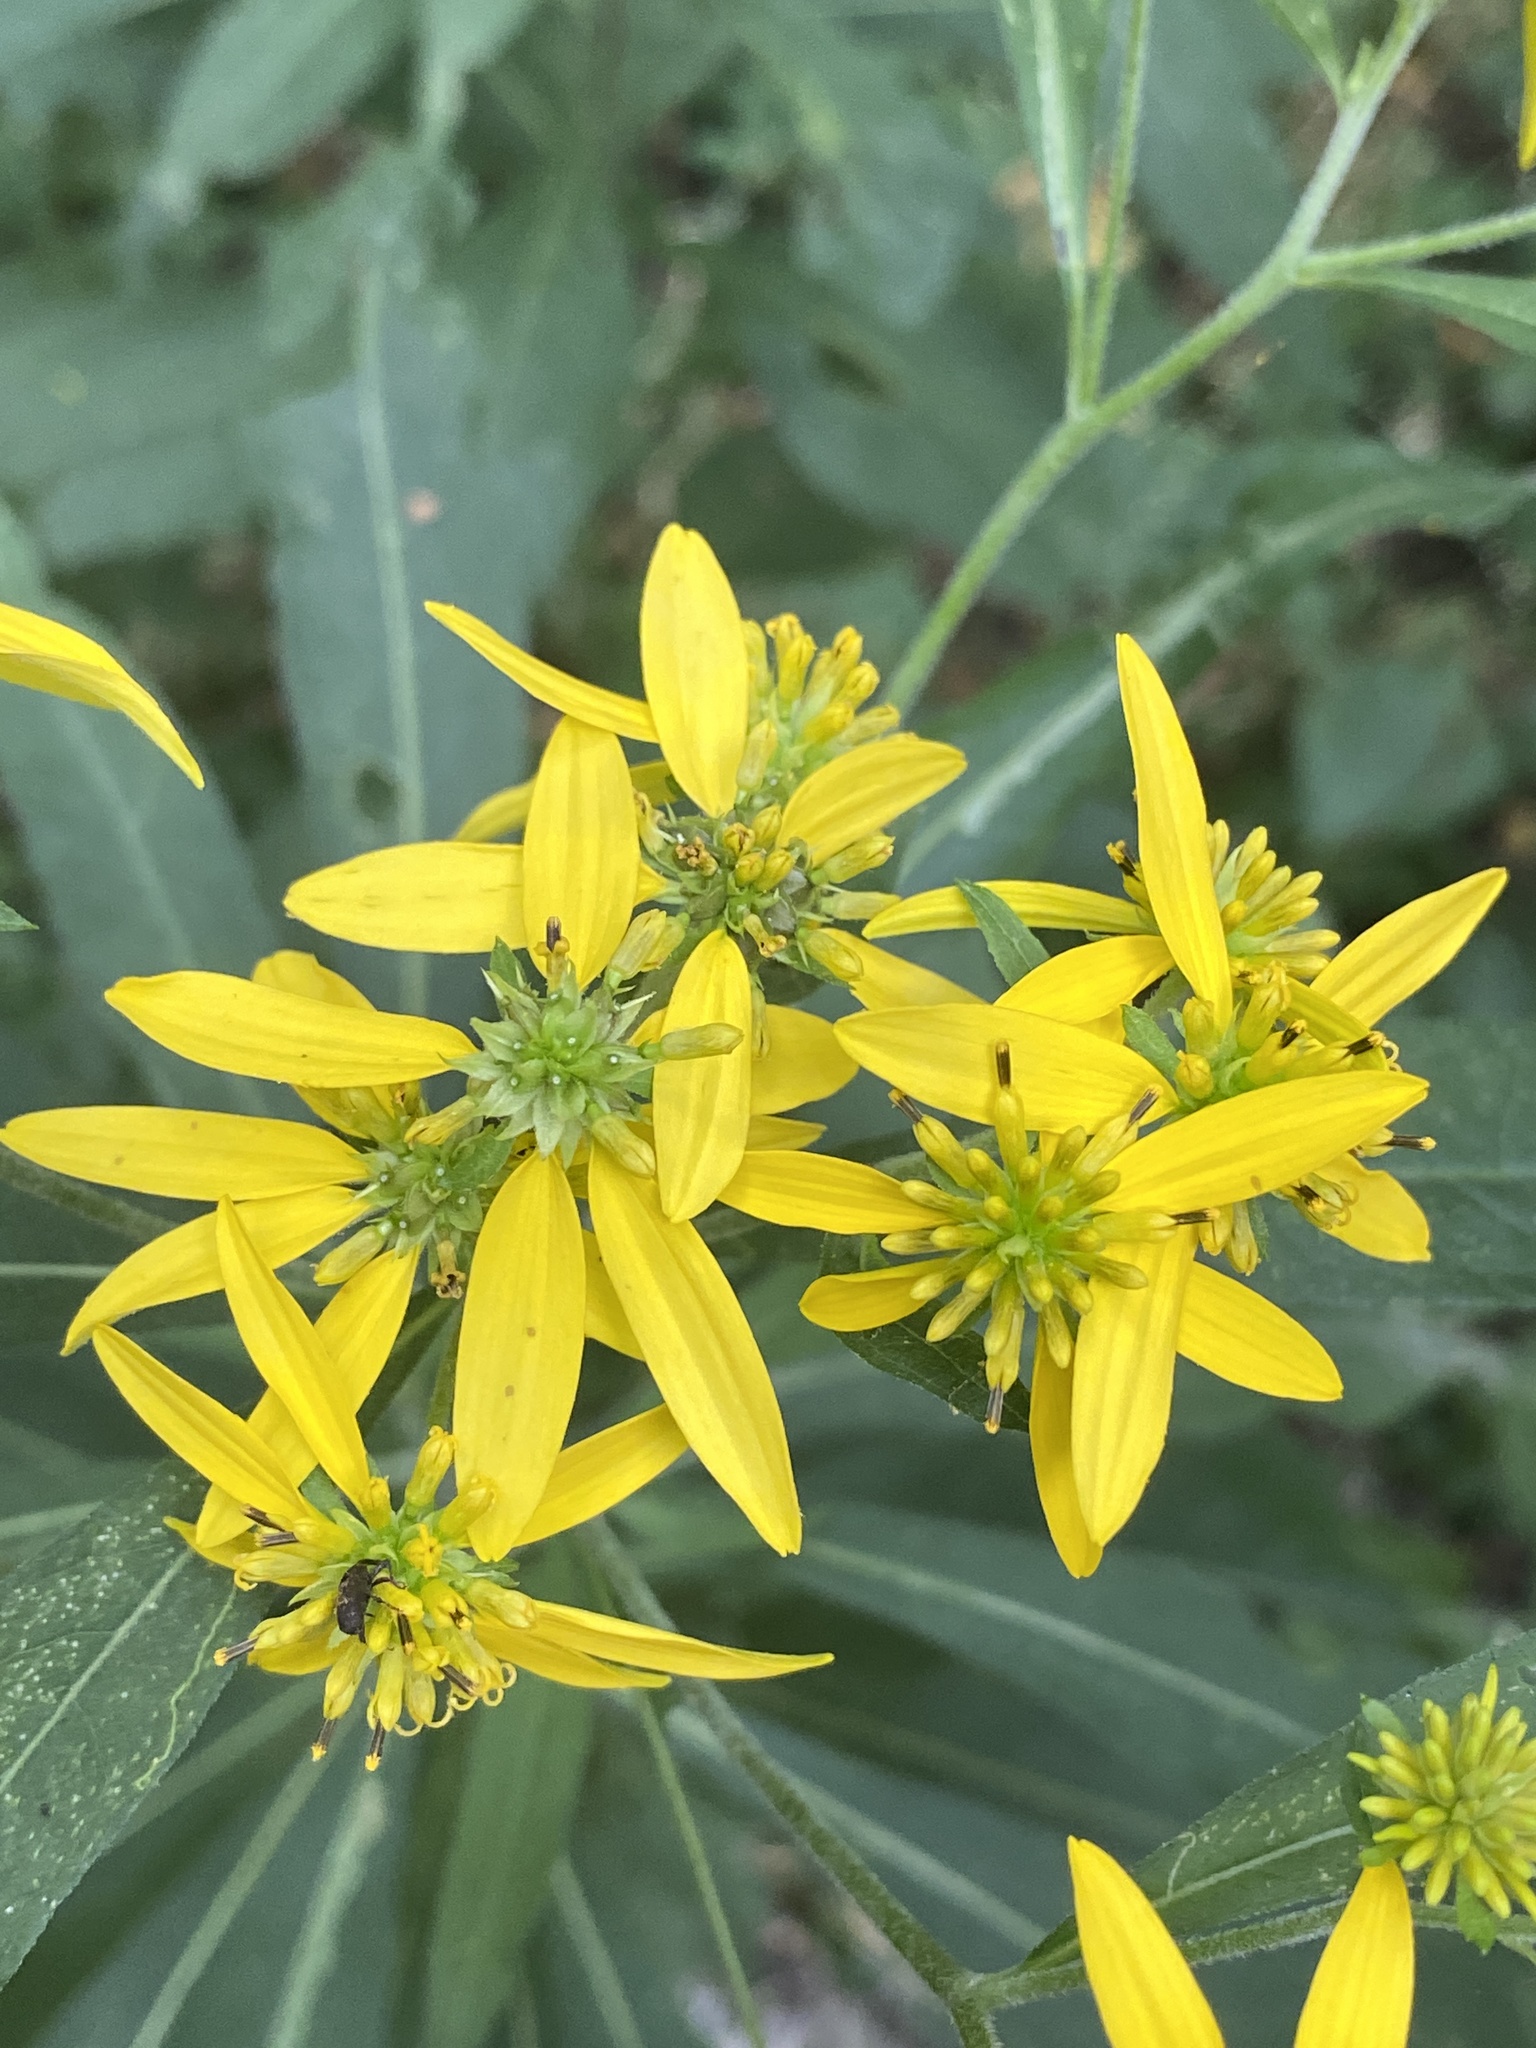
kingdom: Plantae
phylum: Tracheophyta
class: Magnoliopsida
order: Asterales
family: Asteraceae
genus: Verbesina
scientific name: Verbesina alternifolia
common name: Wingstem
